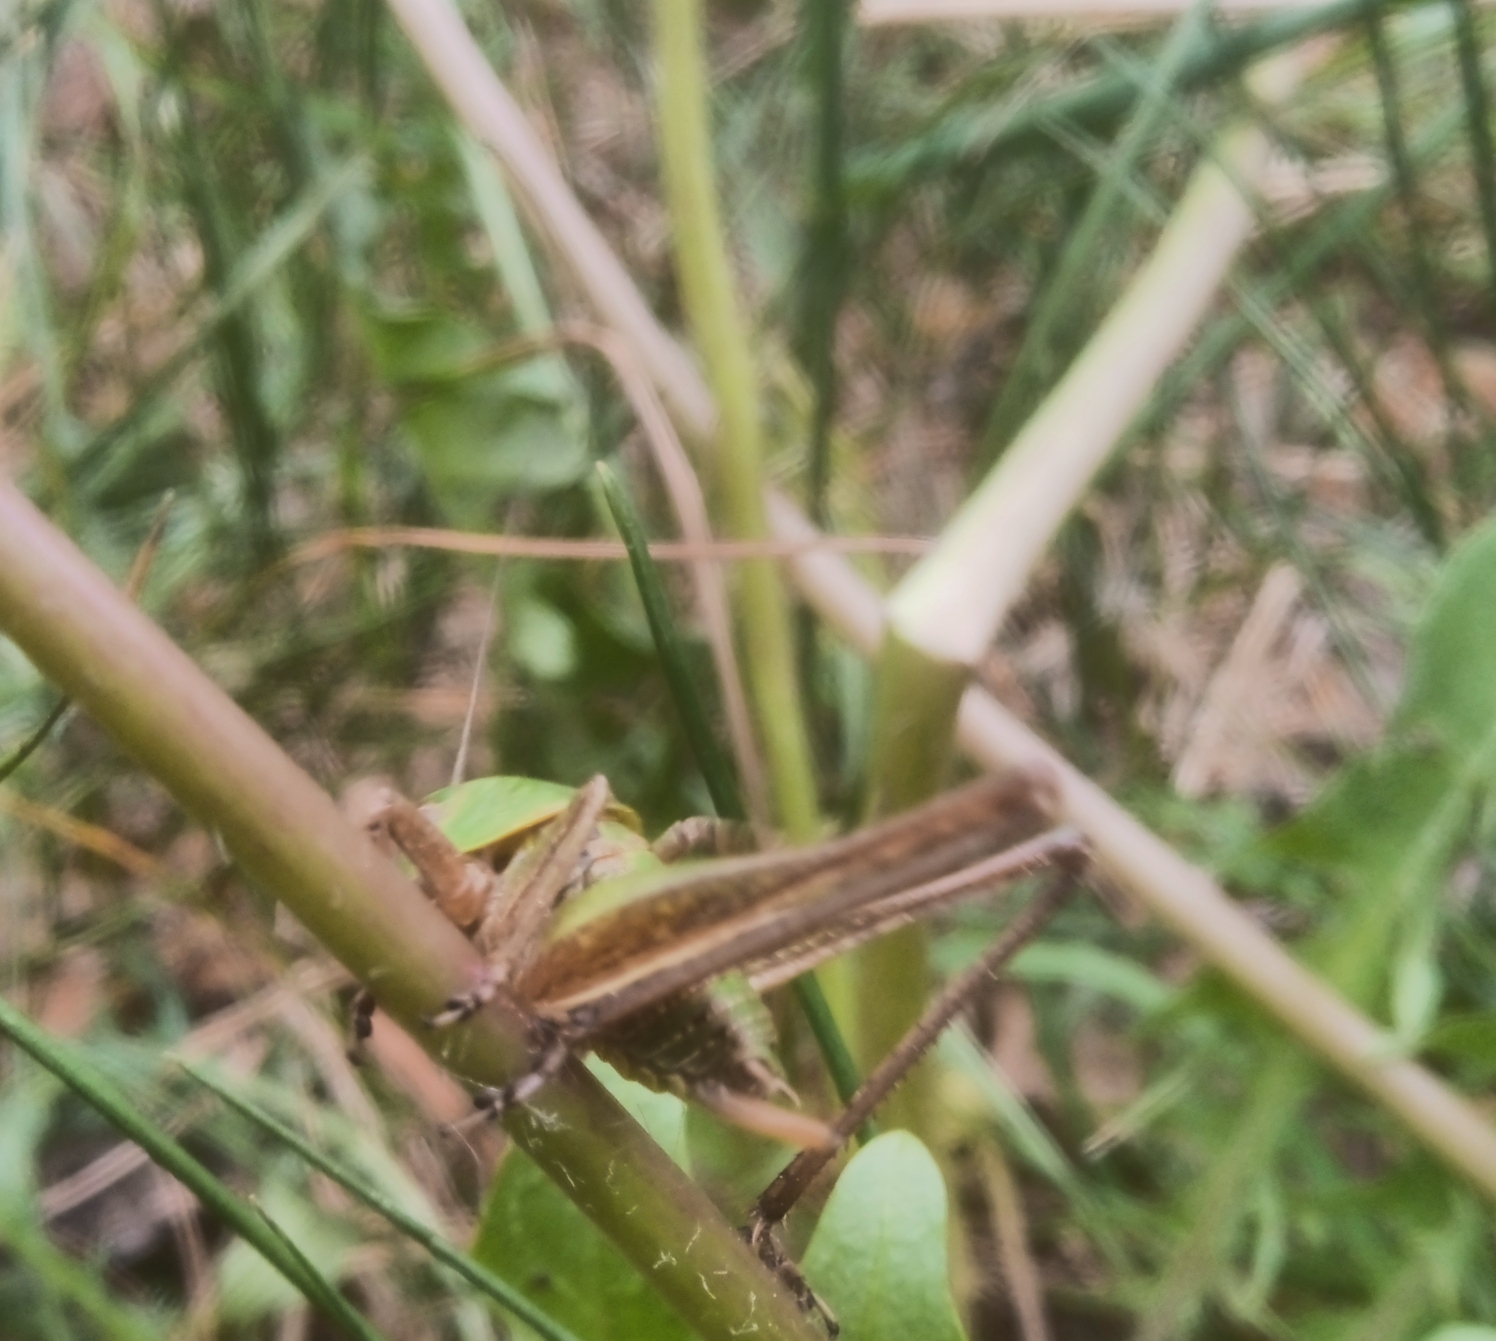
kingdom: Animalia
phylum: Arthropoda
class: Insecta
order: Orthoptera
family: Tettigoniidae
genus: Decticus
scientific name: Decticus verrucivorus
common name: Wart-biter
